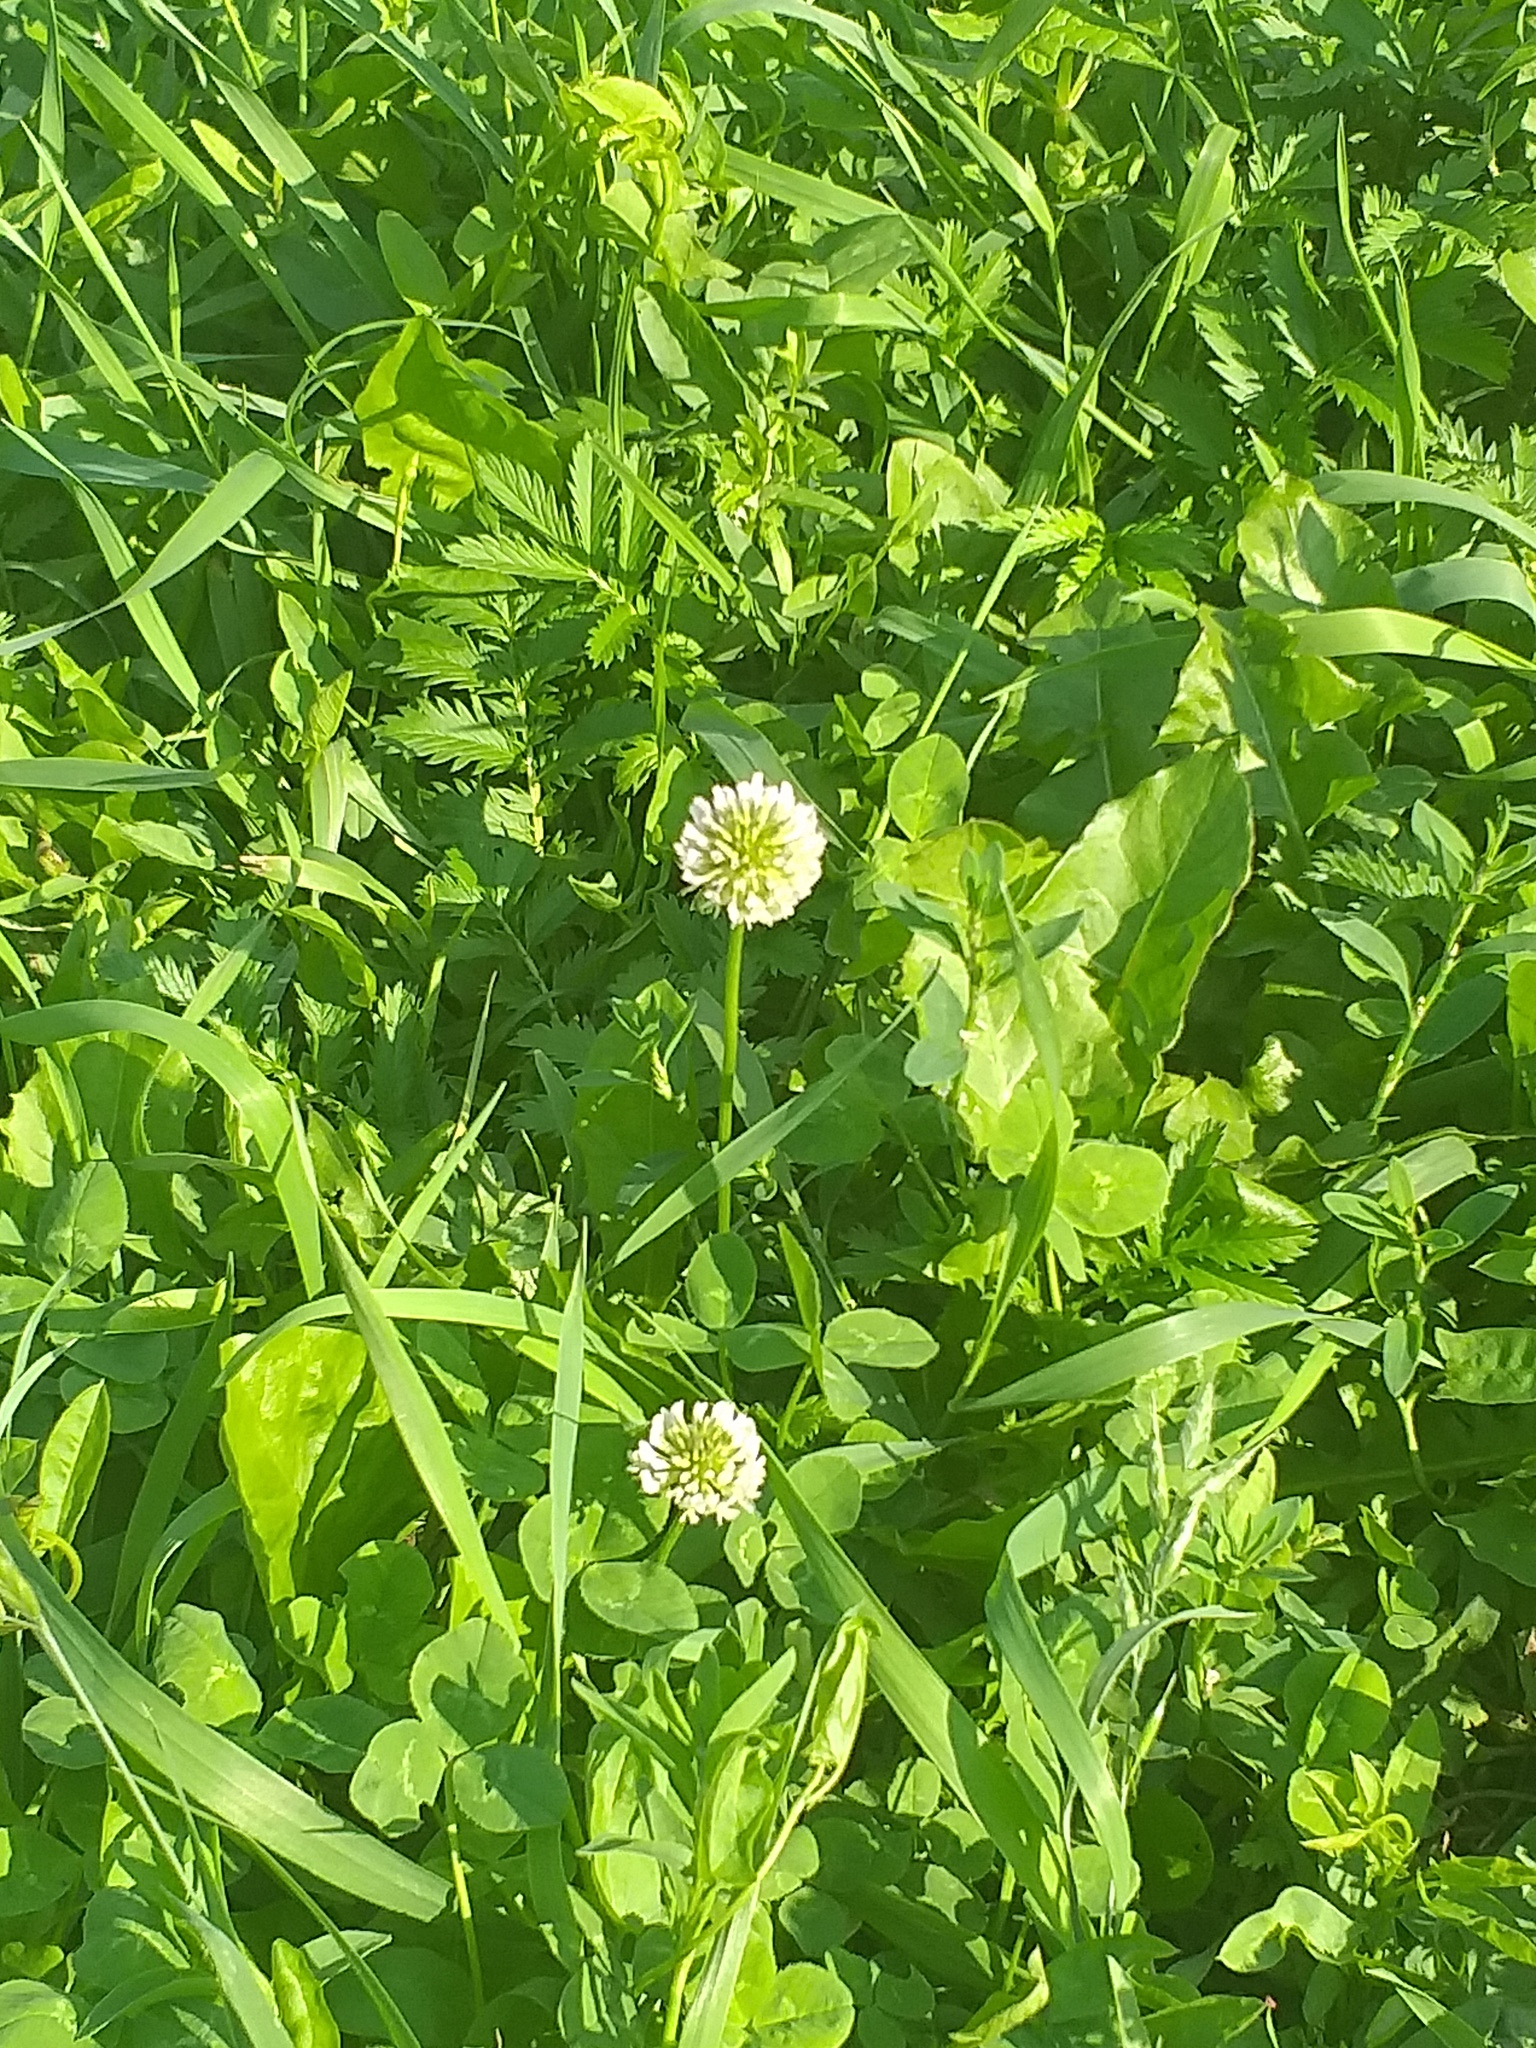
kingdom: Plantae
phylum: Tracheophyta
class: Magnoliopsida
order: Fabales
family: Fabaceae
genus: Trifolium
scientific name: Trifolium repens
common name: White clover
